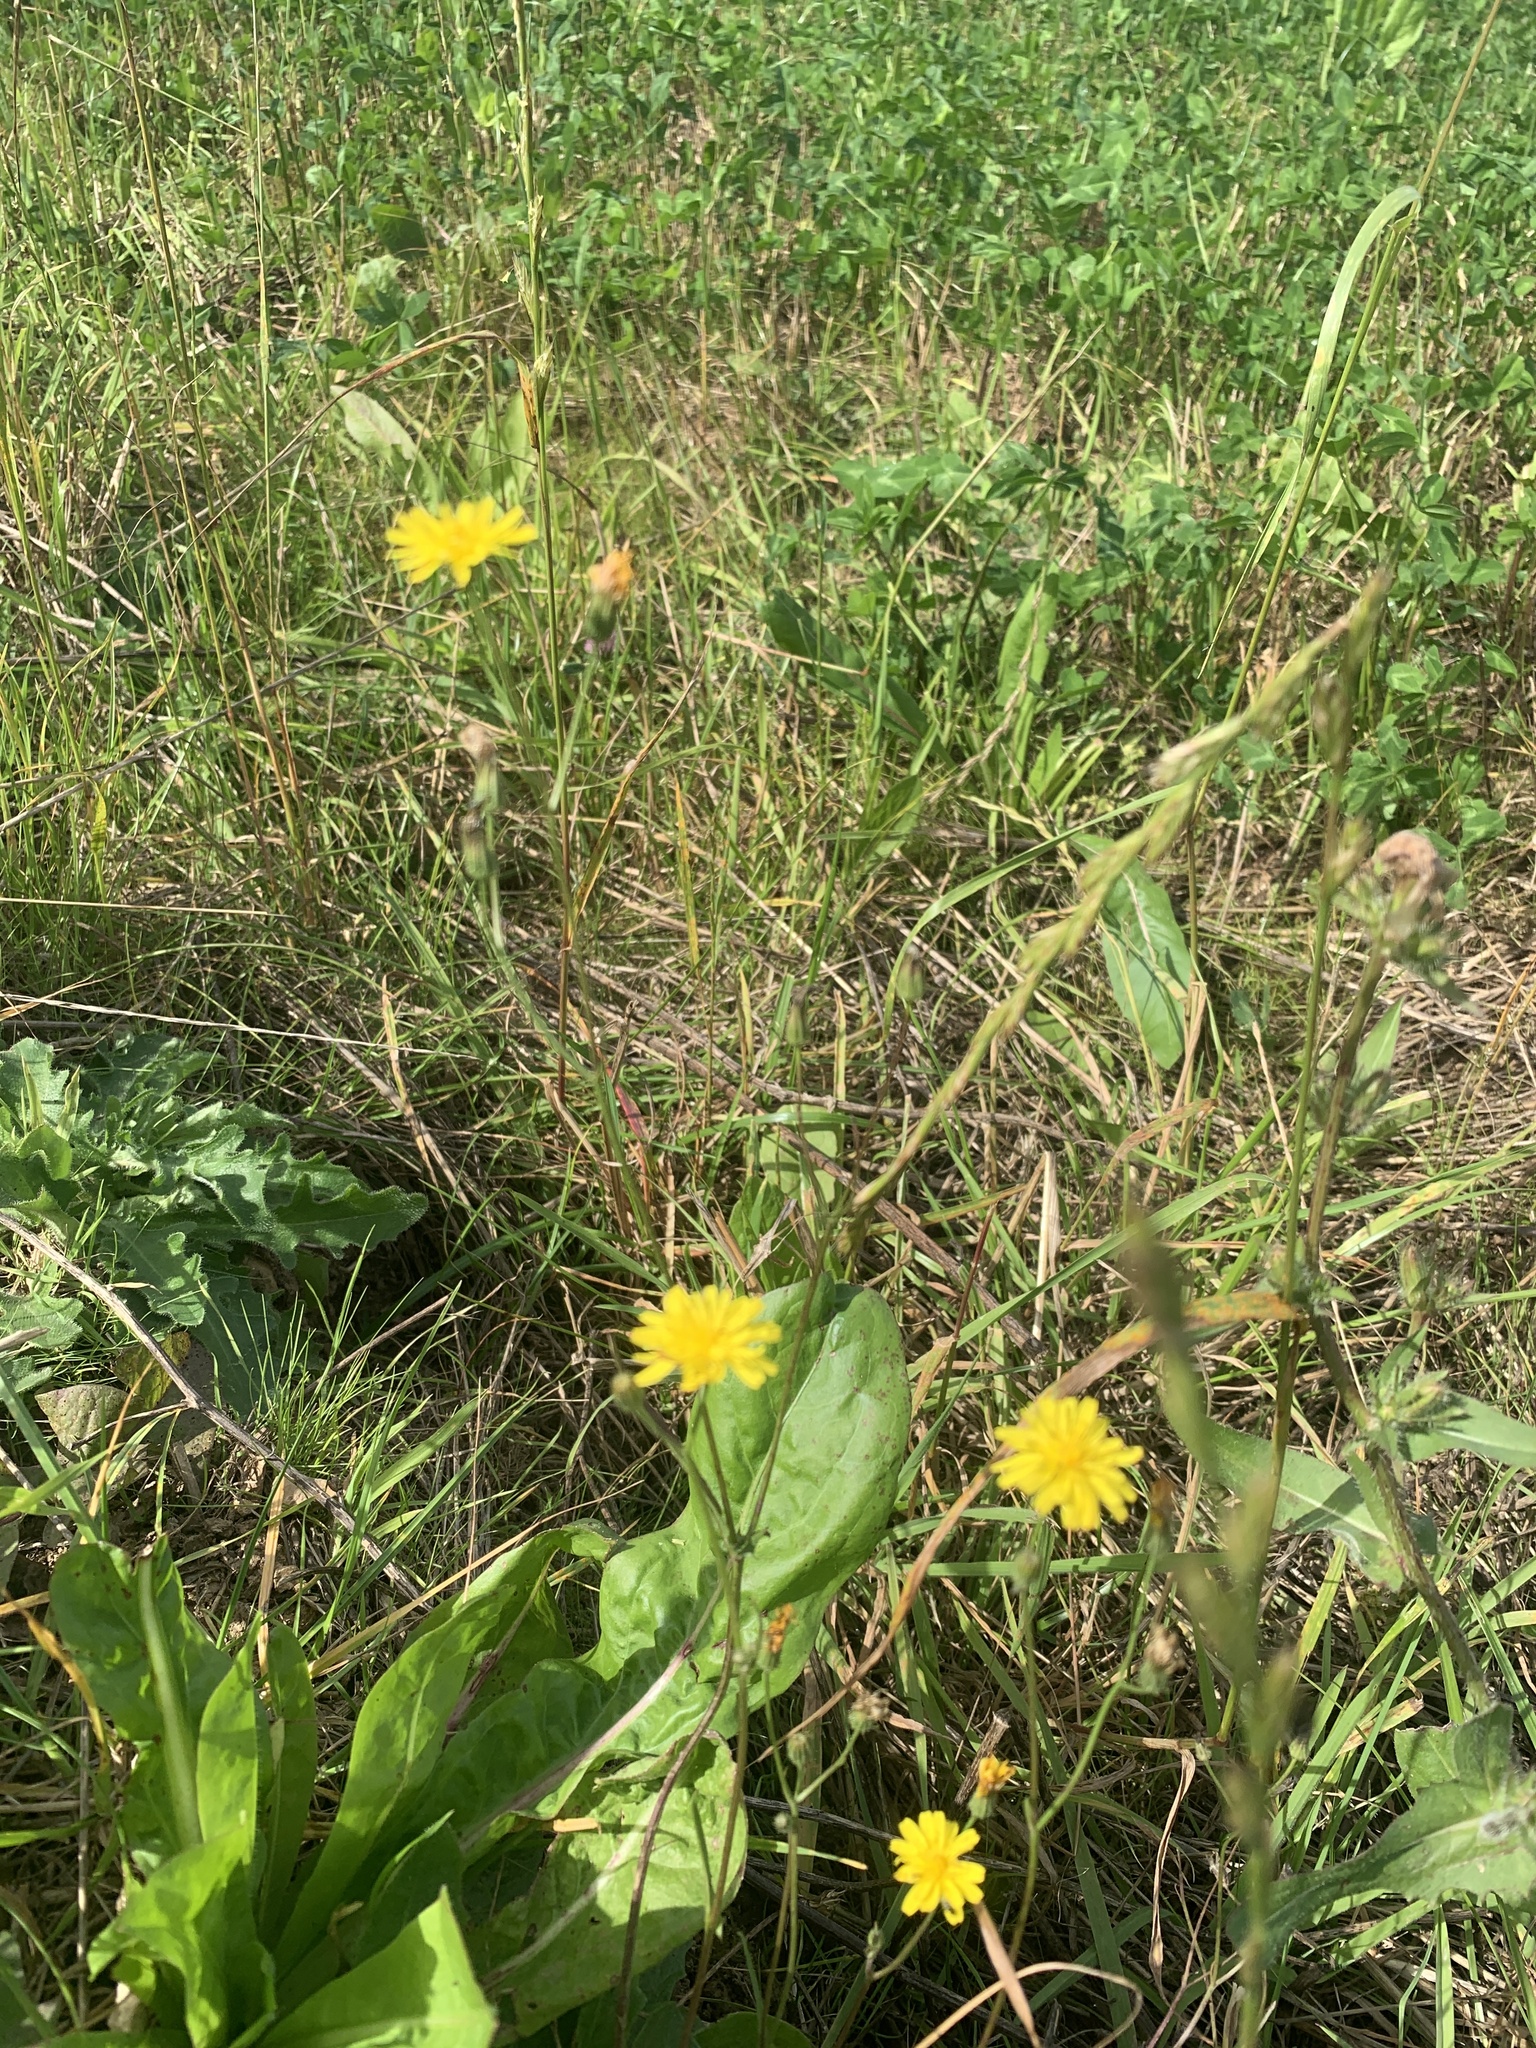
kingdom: Plantae
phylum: Tracheophyta
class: Magnoliopsida
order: Asterales
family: Asteraceae
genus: Crepis
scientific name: Crepis capillaris
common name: Smooth hawksbeard
